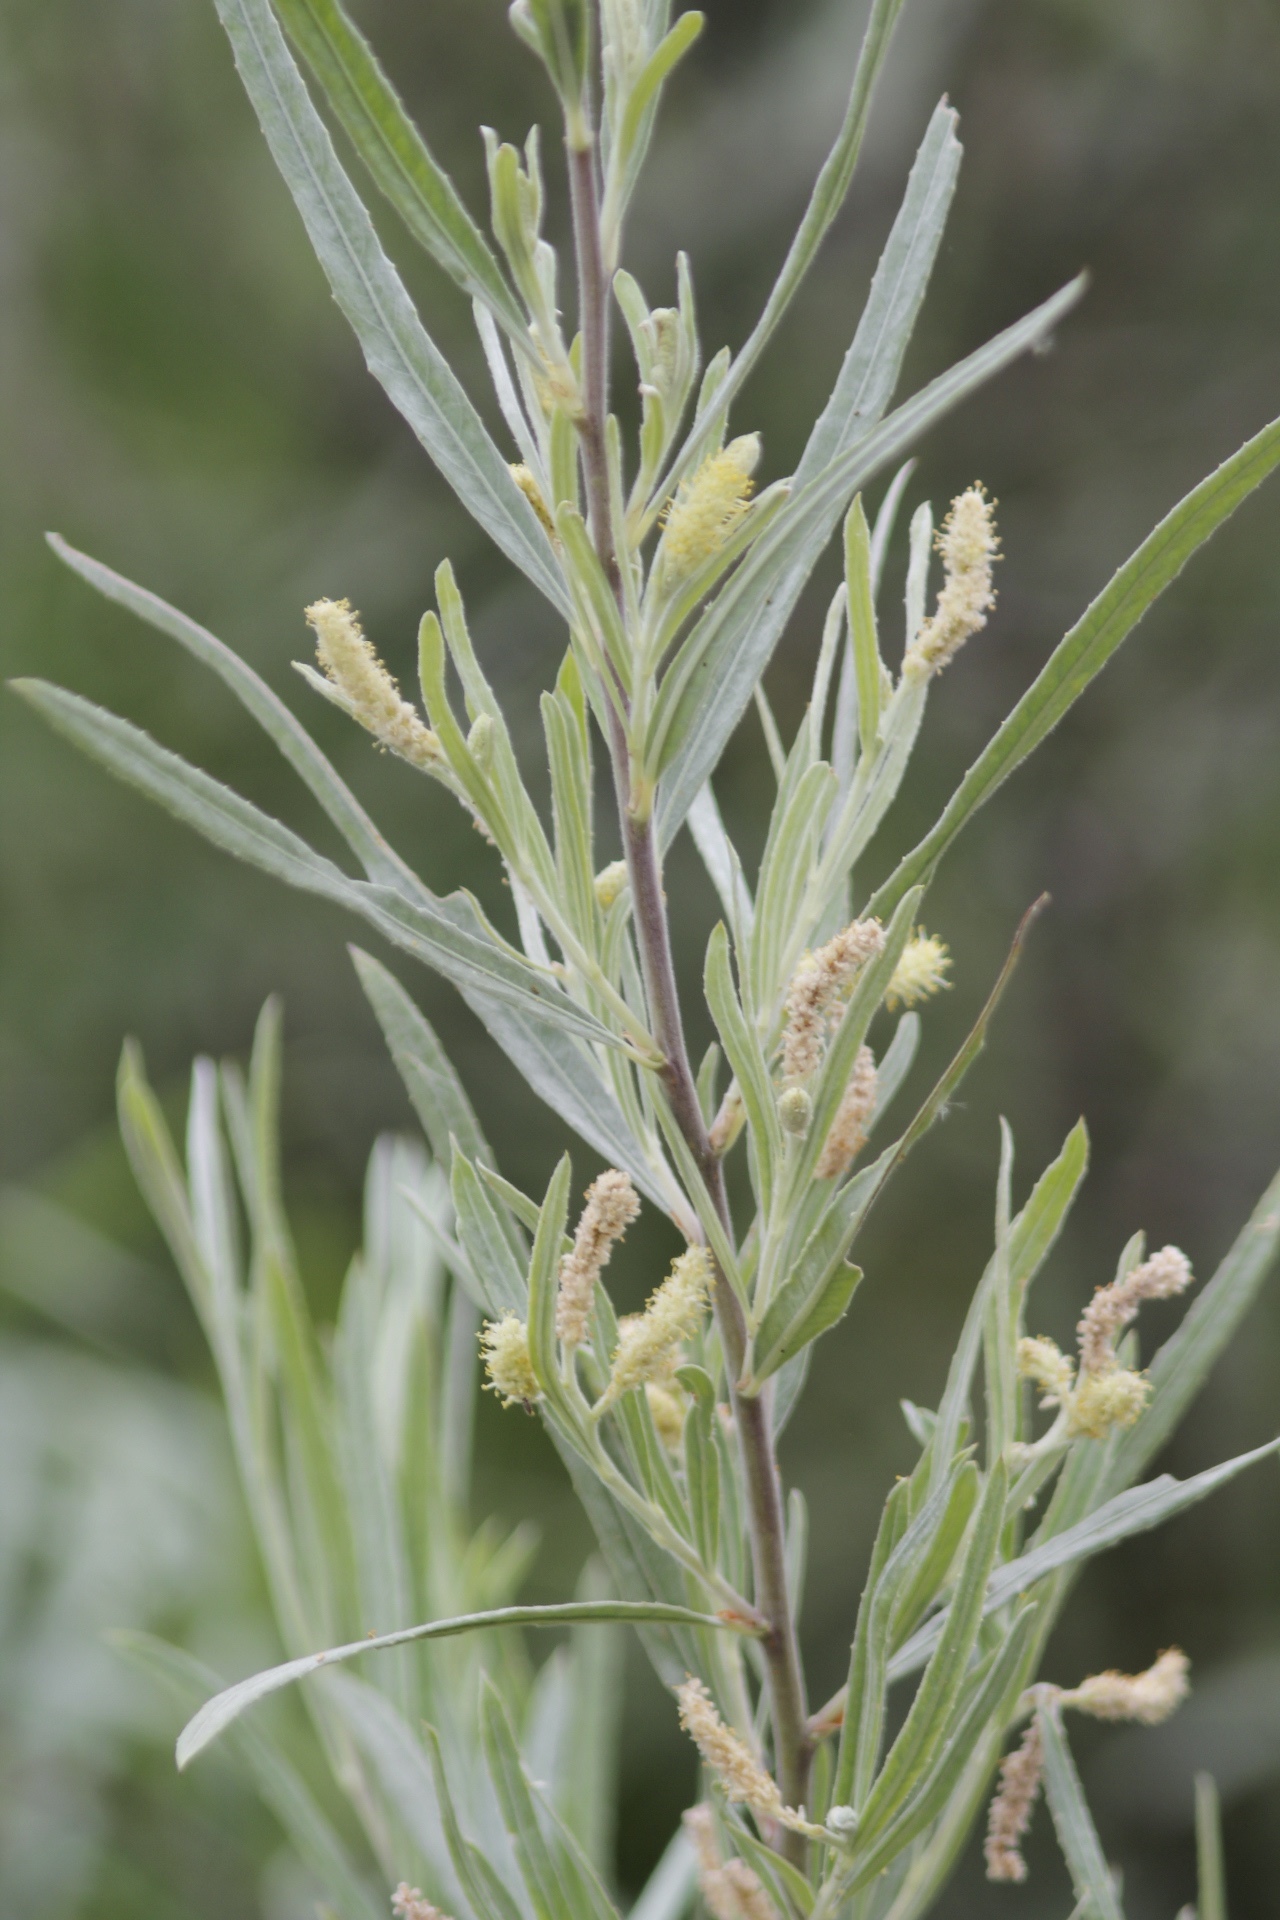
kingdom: Plantae
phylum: Tracheophyta
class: Magnoliopsida
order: Malpighiales
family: Salicaceae
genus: Salix
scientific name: Salix exigua
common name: Coyote willow
